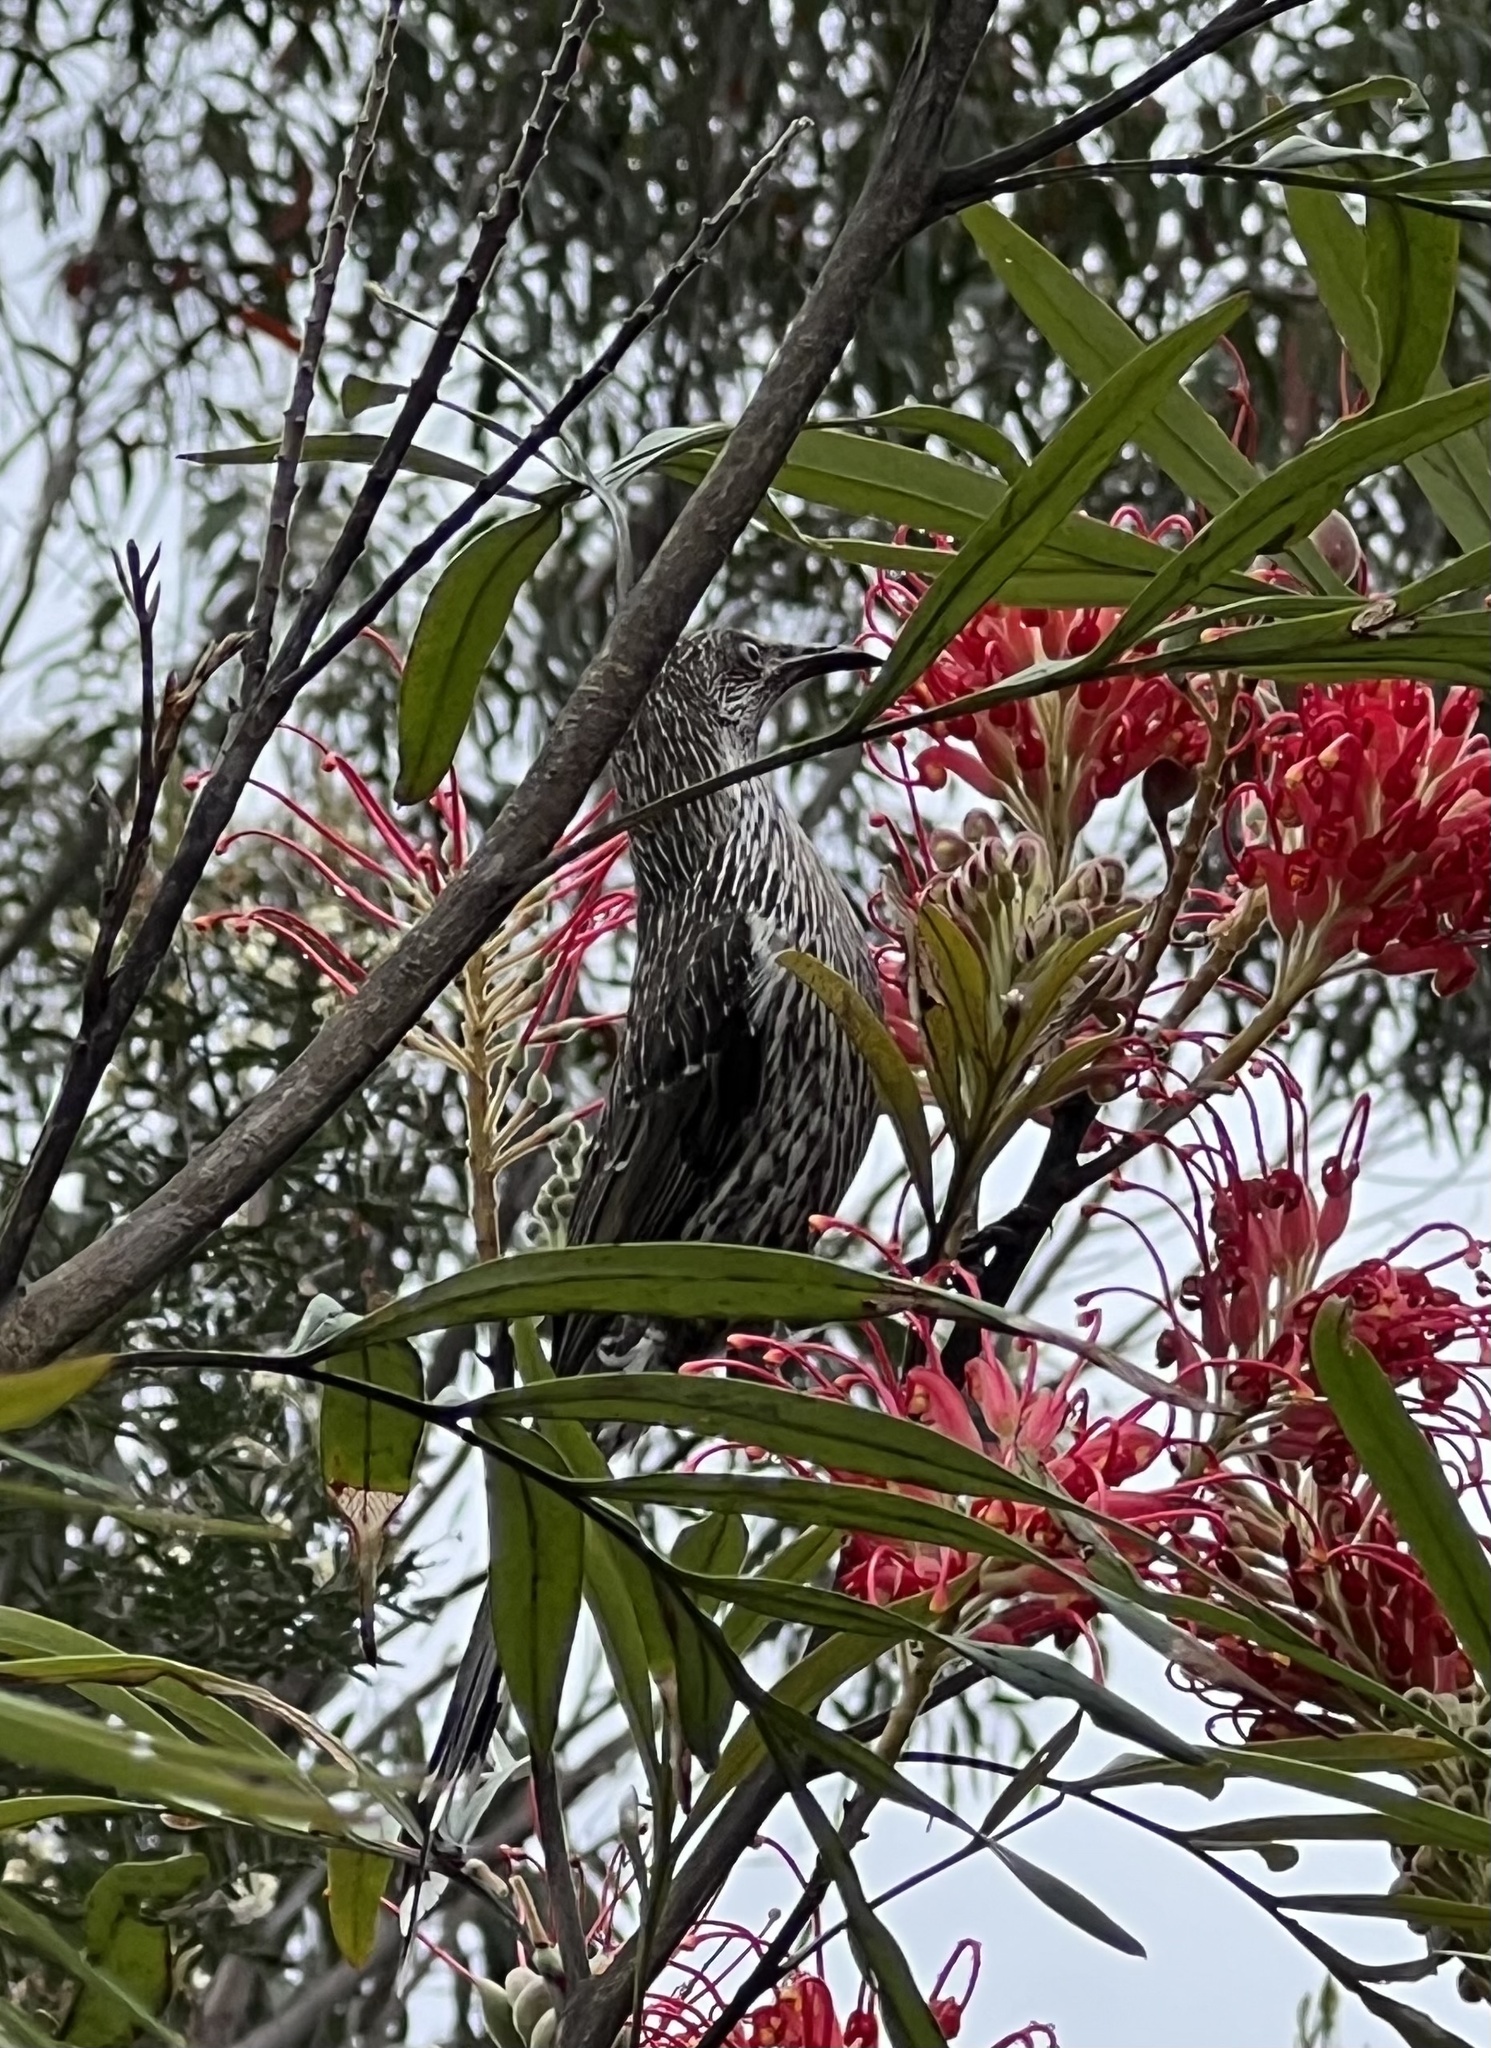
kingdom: Animalia
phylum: Chordata
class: Aves
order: Passeriformes
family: Meliphagidae
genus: Anthochaera
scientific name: Anthochaera chrysoptera
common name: Little wattlebird
